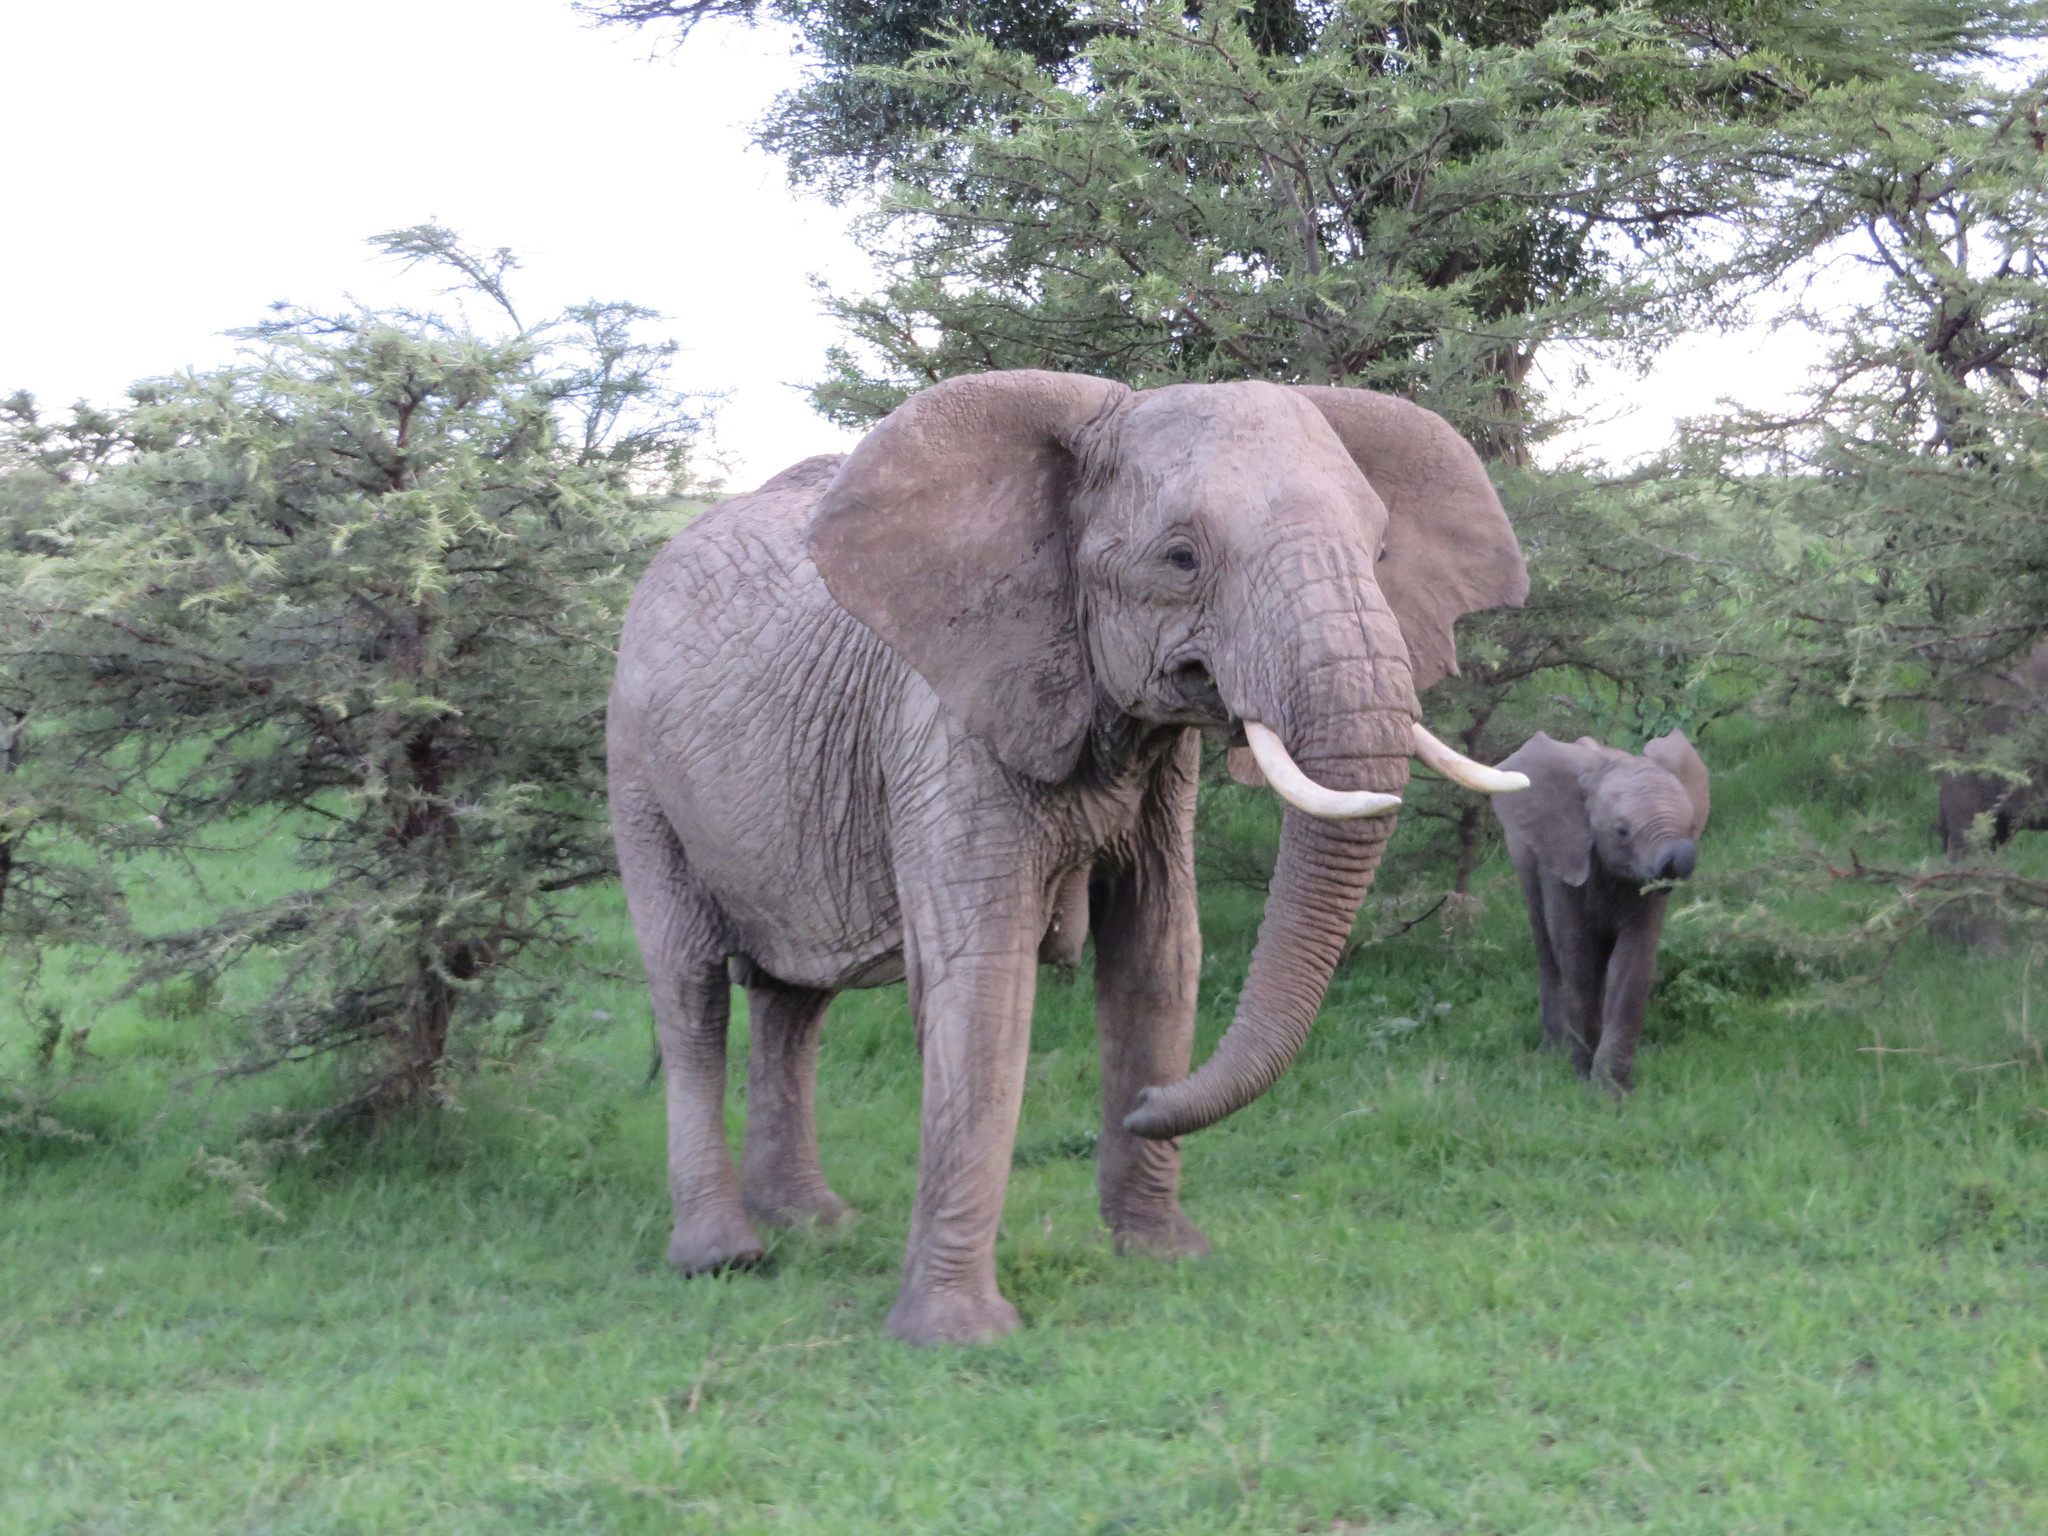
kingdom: Animalia
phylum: Chordata
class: Mammalia
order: Proboscidea
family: Elephantidae
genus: Loxodonta
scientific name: Loxodonta africana
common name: African elephant
